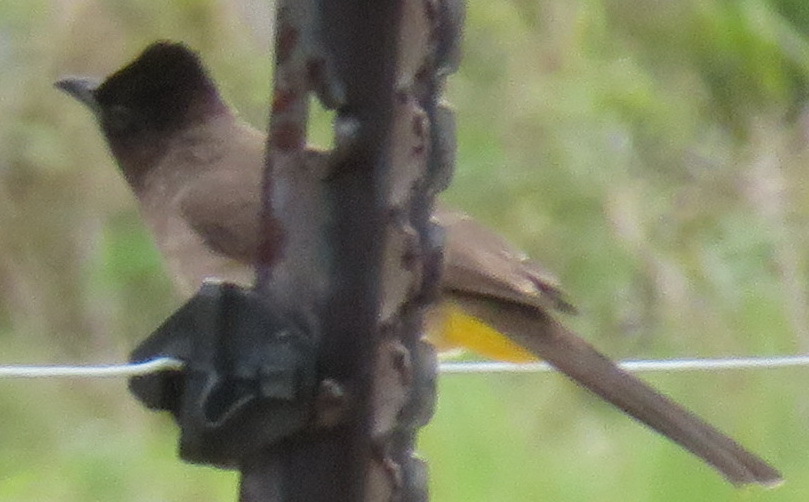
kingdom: Animalia
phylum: Chordata
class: Aves
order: Passeriformes
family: Pycnonotidae
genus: Pycnonotus
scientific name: Pycnonotus barbatus
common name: Common bulbul
